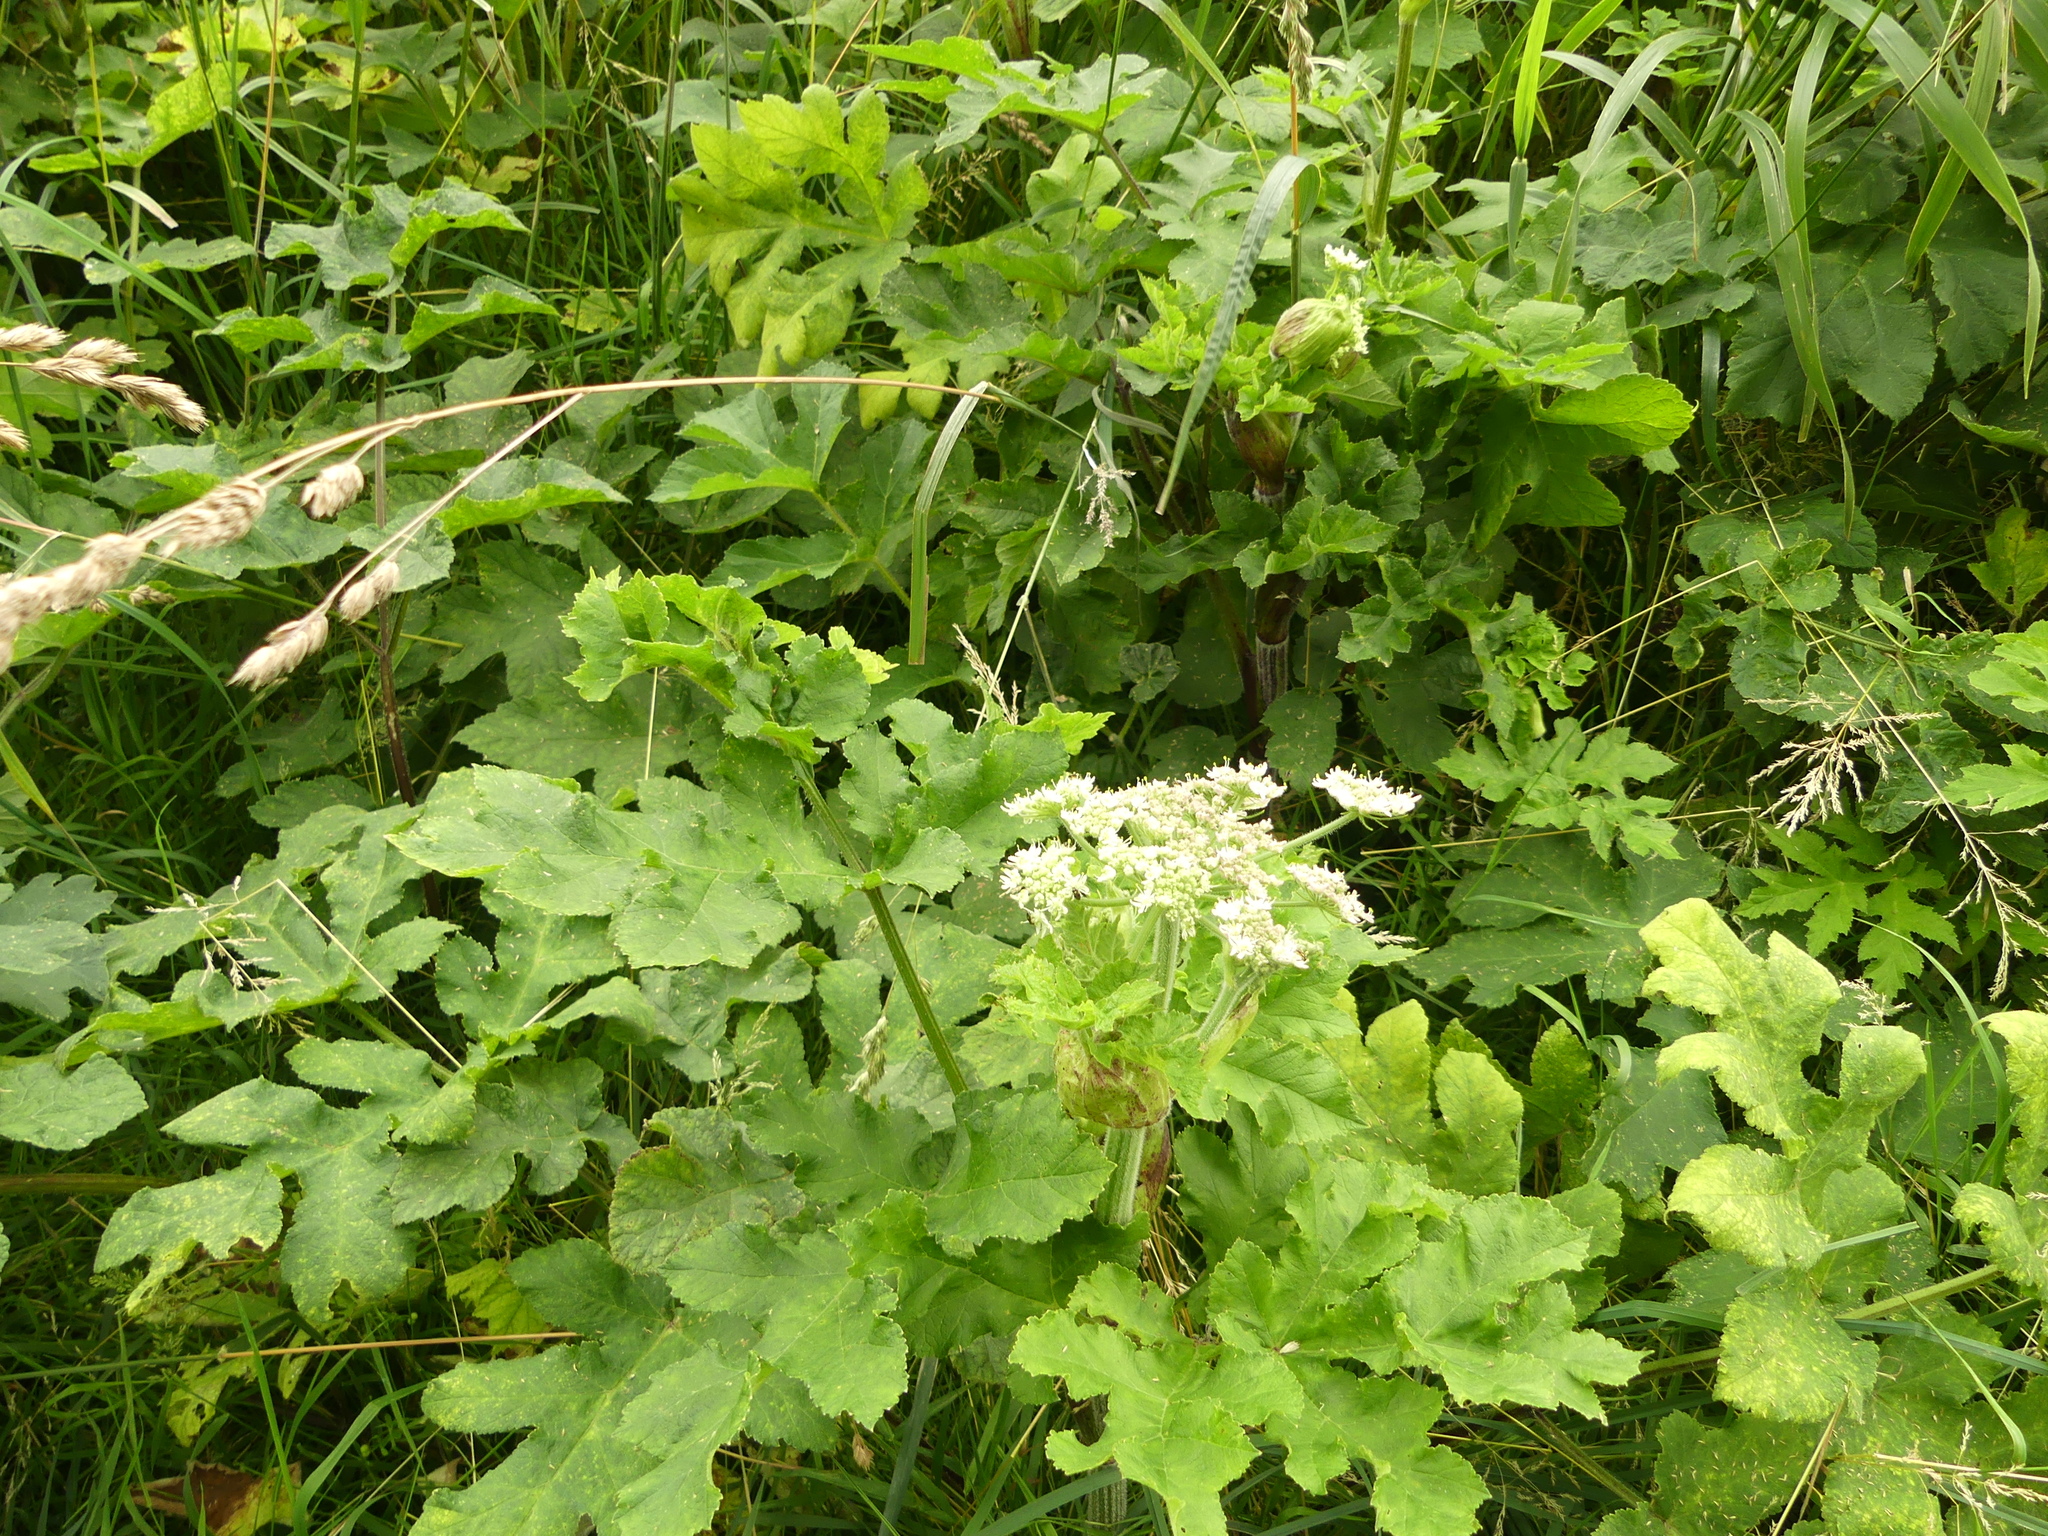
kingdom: Plantae
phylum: Tracheophyta
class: Magnoliopsida
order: Apiales
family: Apiaceae
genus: Heracleum
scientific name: Heracleum sphondylium
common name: Hogweed
